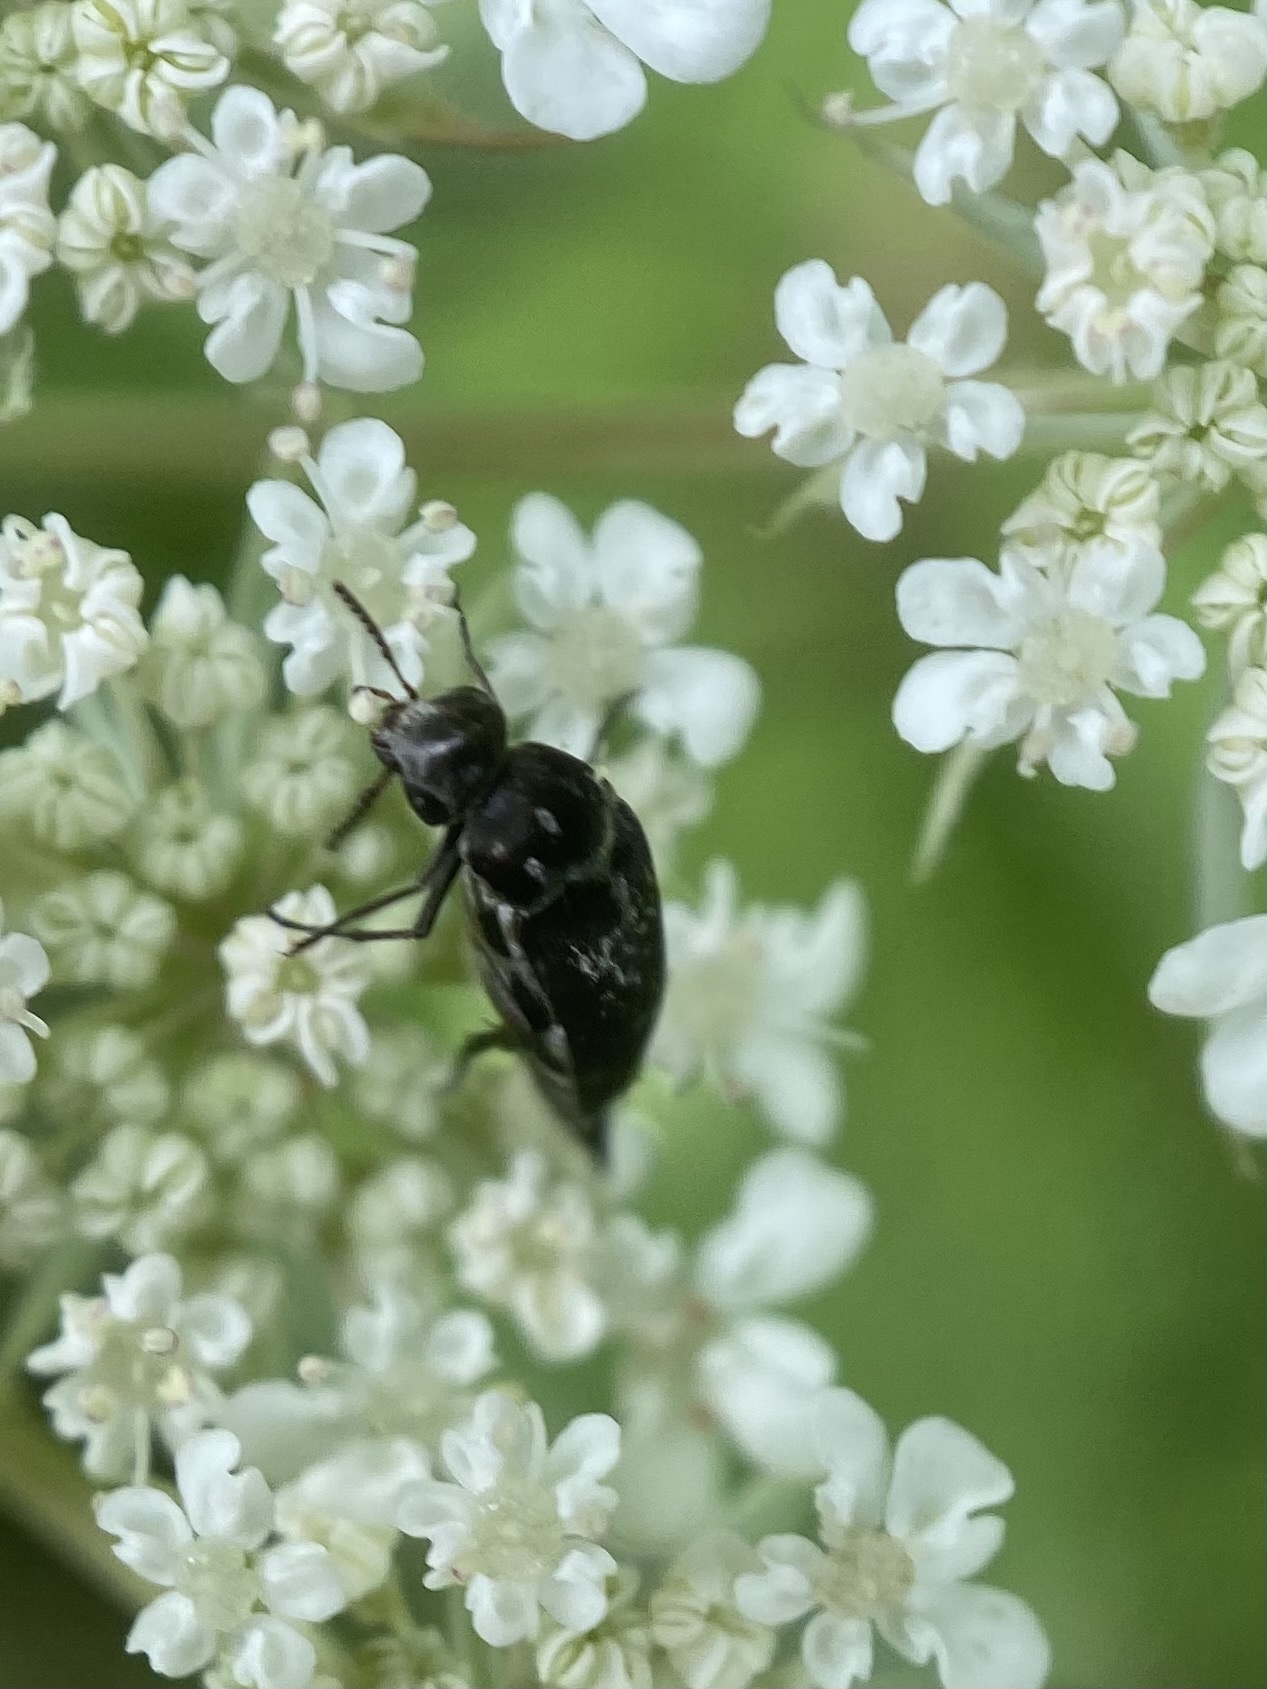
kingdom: Animalia
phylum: Arthropoda
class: Insecta
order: Coleoptera
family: Mordellidae
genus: Mordella
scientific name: Mordella marginata
